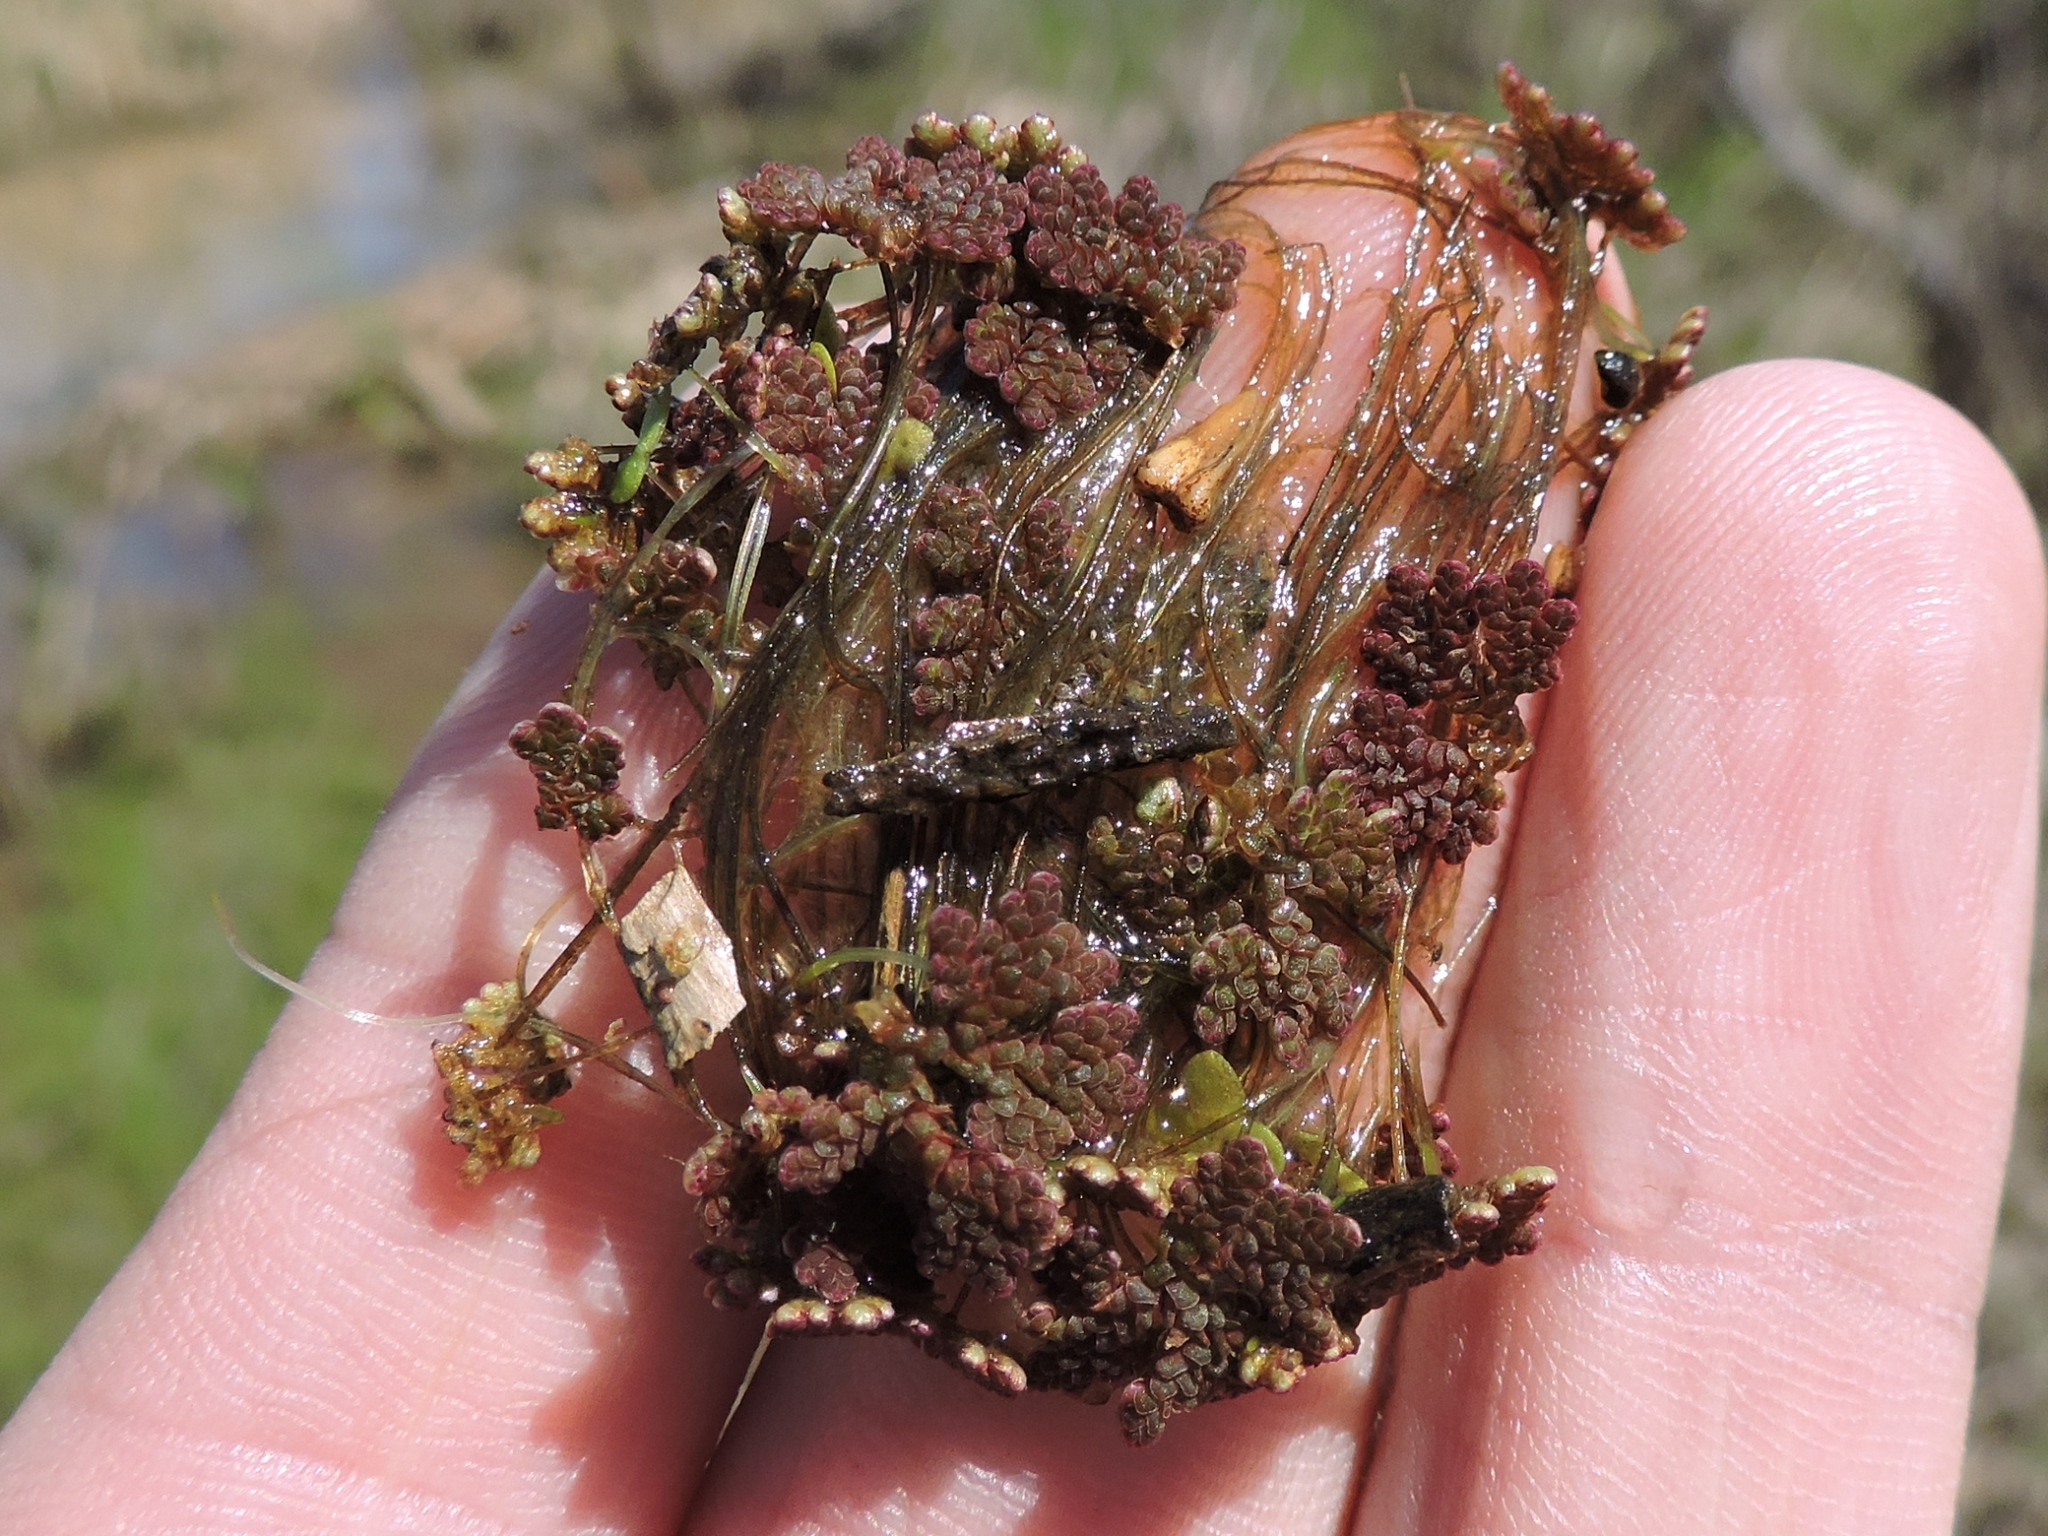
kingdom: Plantae
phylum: Tracheophyta
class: Polypodiopsida
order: Salviniales
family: Salviniaceae
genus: Azolla
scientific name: Azolla caroliniana
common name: Carolina mosquitofern
